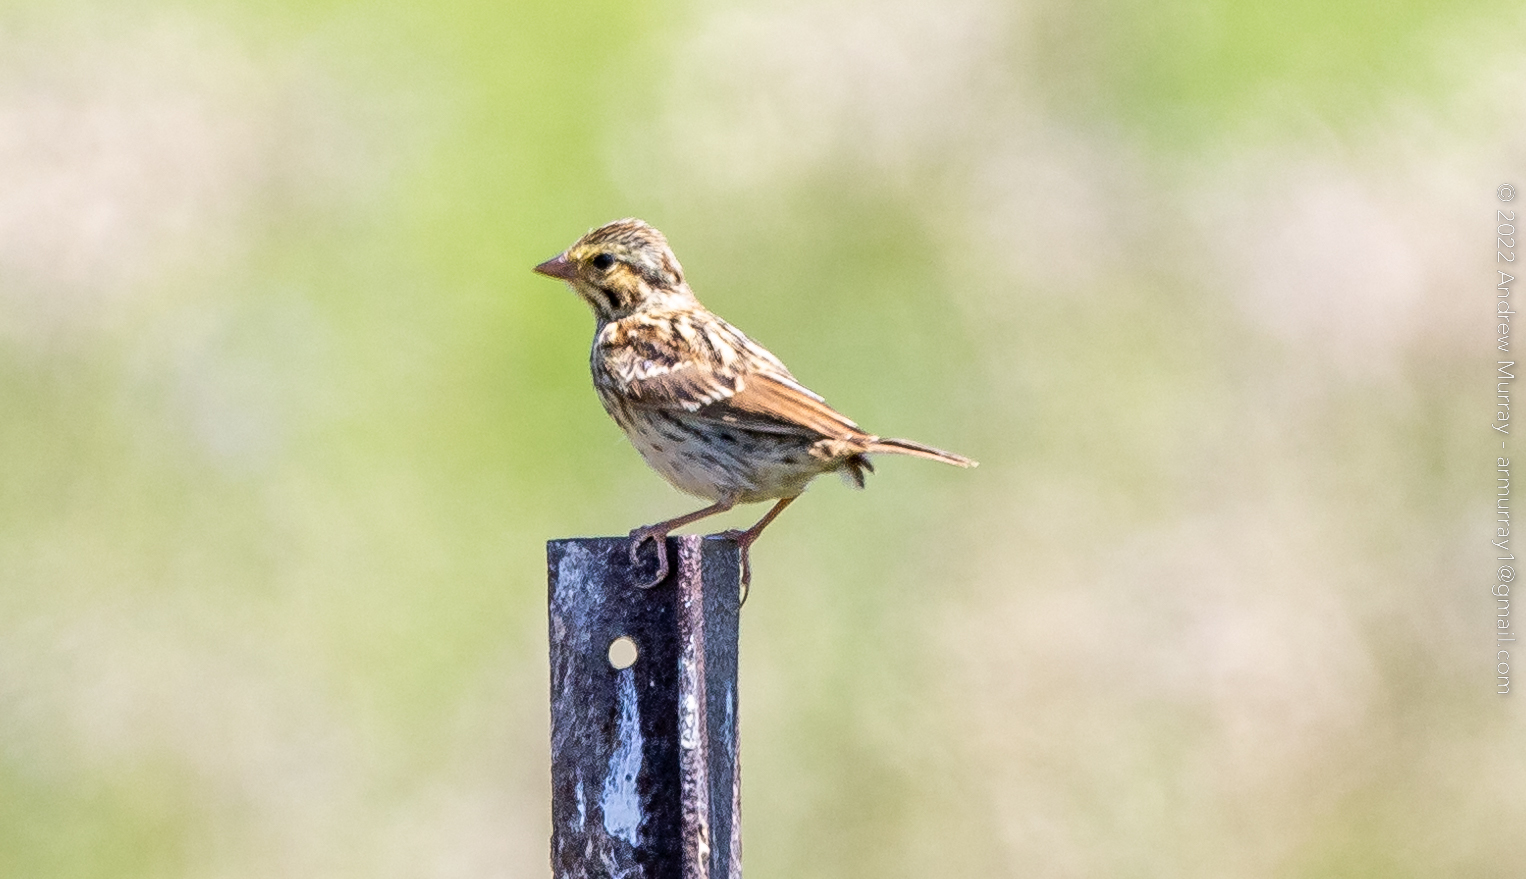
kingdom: Animalia
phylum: Chordata
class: Aves
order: Passeriformes
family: Passerellidae
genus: Passerculus
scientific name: Passerculus sandwichensis
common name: Savannah sparrow
